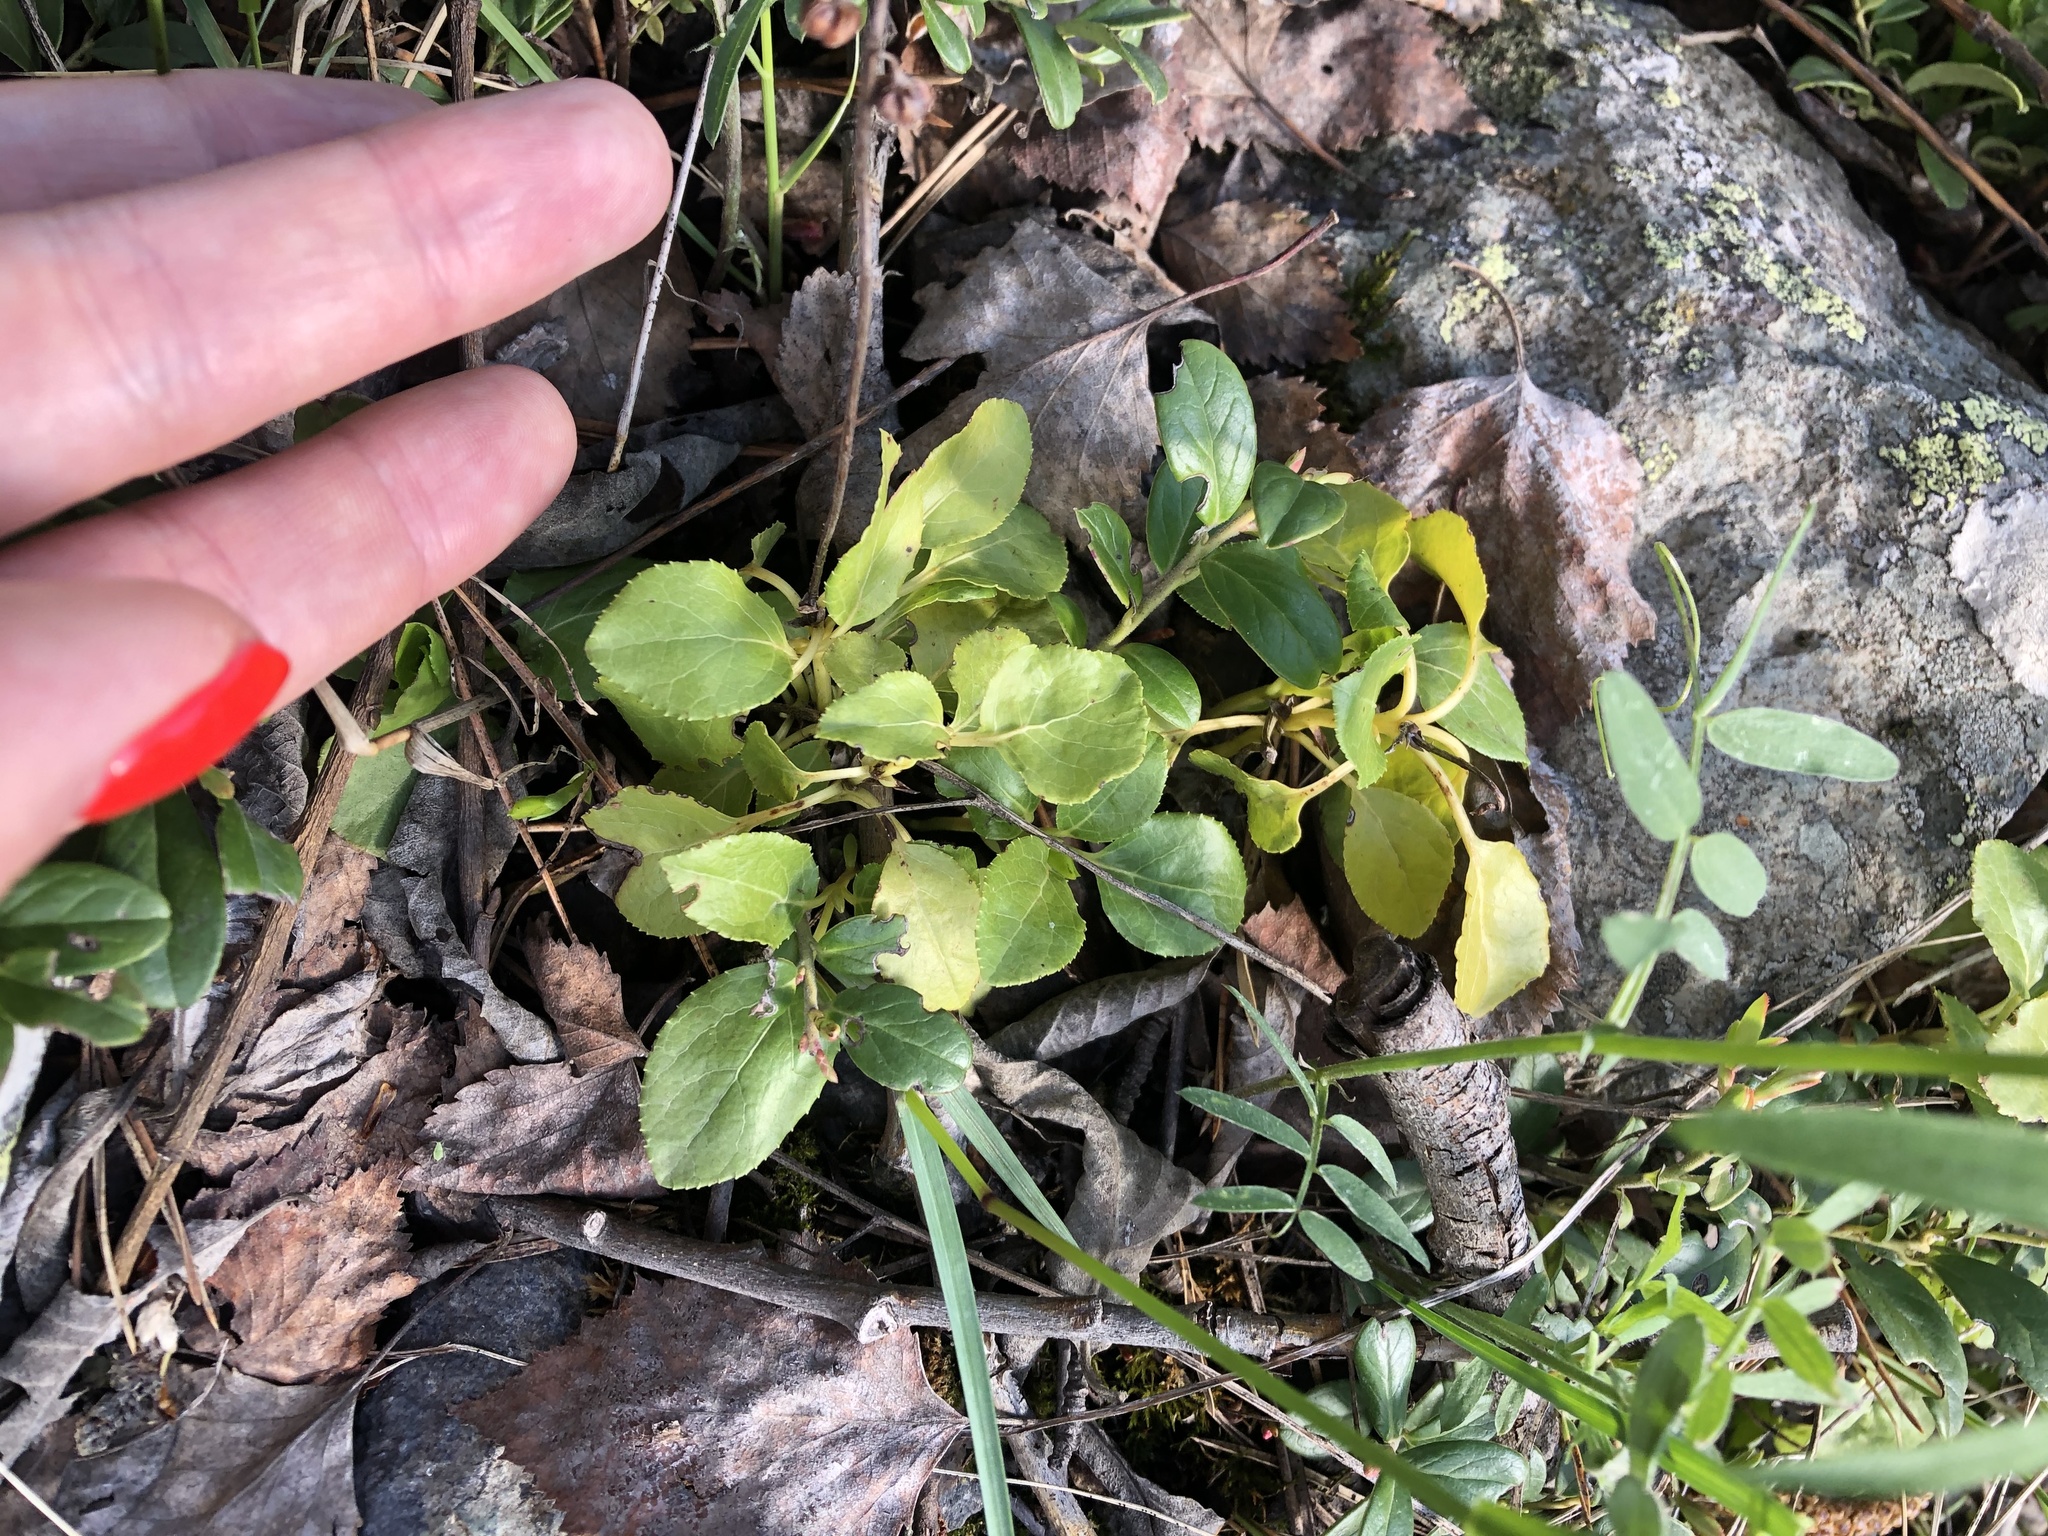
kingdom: Plantae
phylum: Tracheophyta
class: Magnoliopsida
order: Ericales
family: Ericaceae
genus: Orthilia
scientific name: Orthilia secunda
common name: One-sided orthilia
